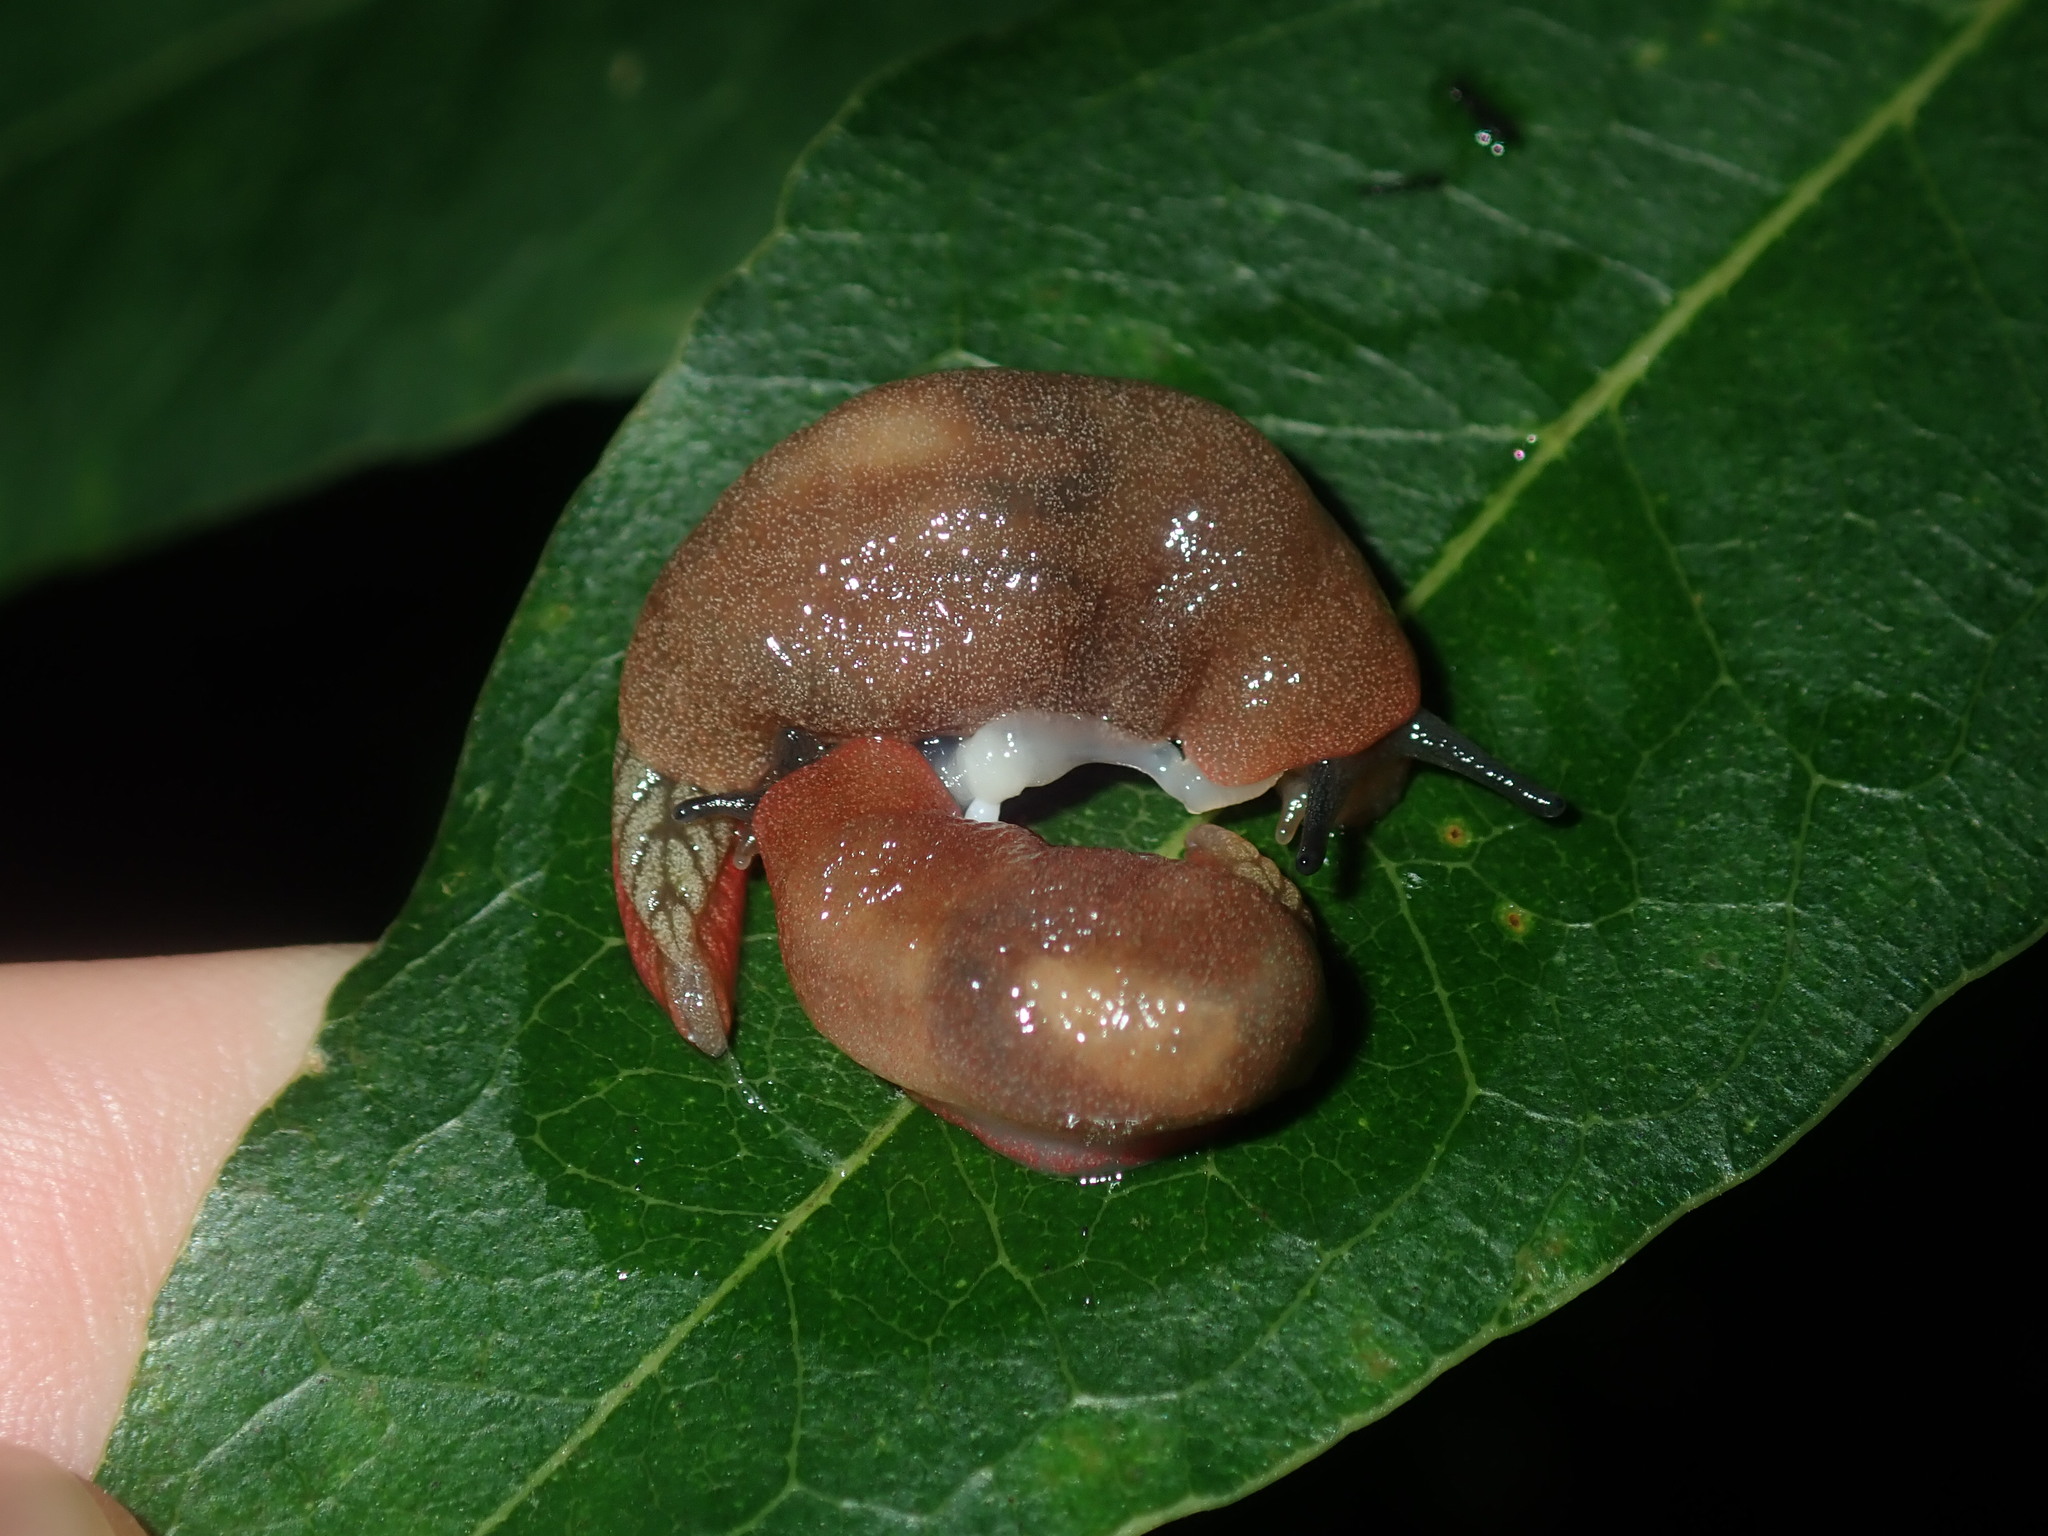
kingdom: Animalia
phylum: Mollusca
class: Gastropoda
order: Stylommatophora
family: Cystopeltidae
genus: Cystopelta
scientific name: Cystopelta septentrionalis
